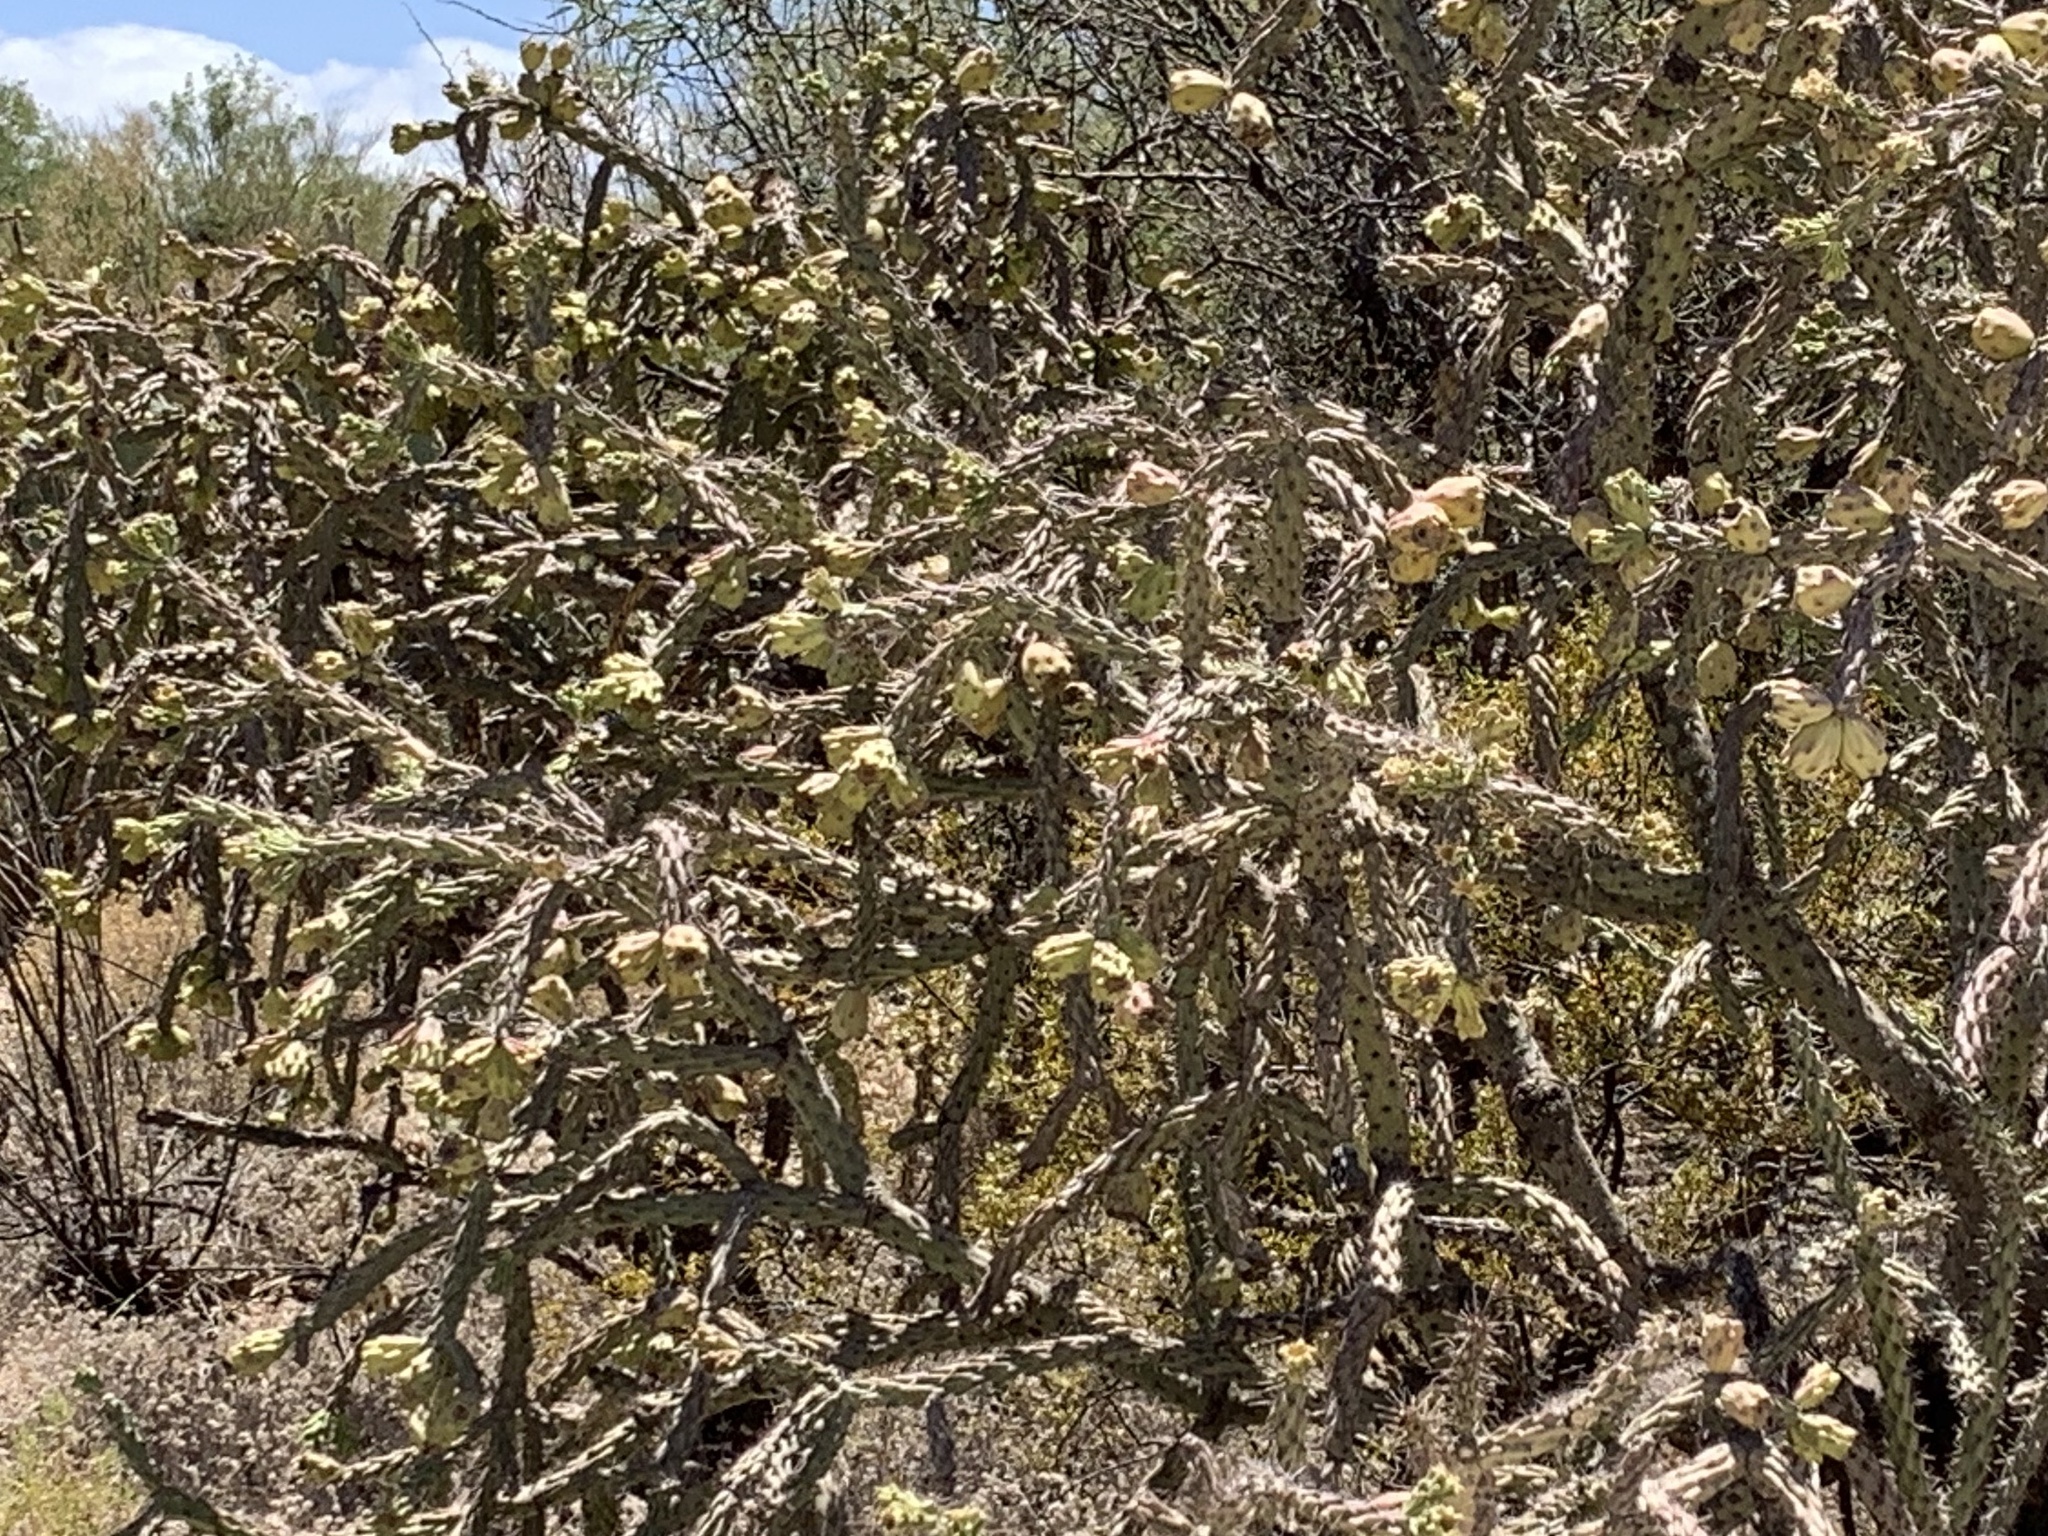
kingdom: Plantae
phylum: Tracheophyta
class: Magnoliopsida
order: Caryophyllales
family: Cactaceae
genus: Cylindropuntia
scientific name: Cylindropuntia thurberi
